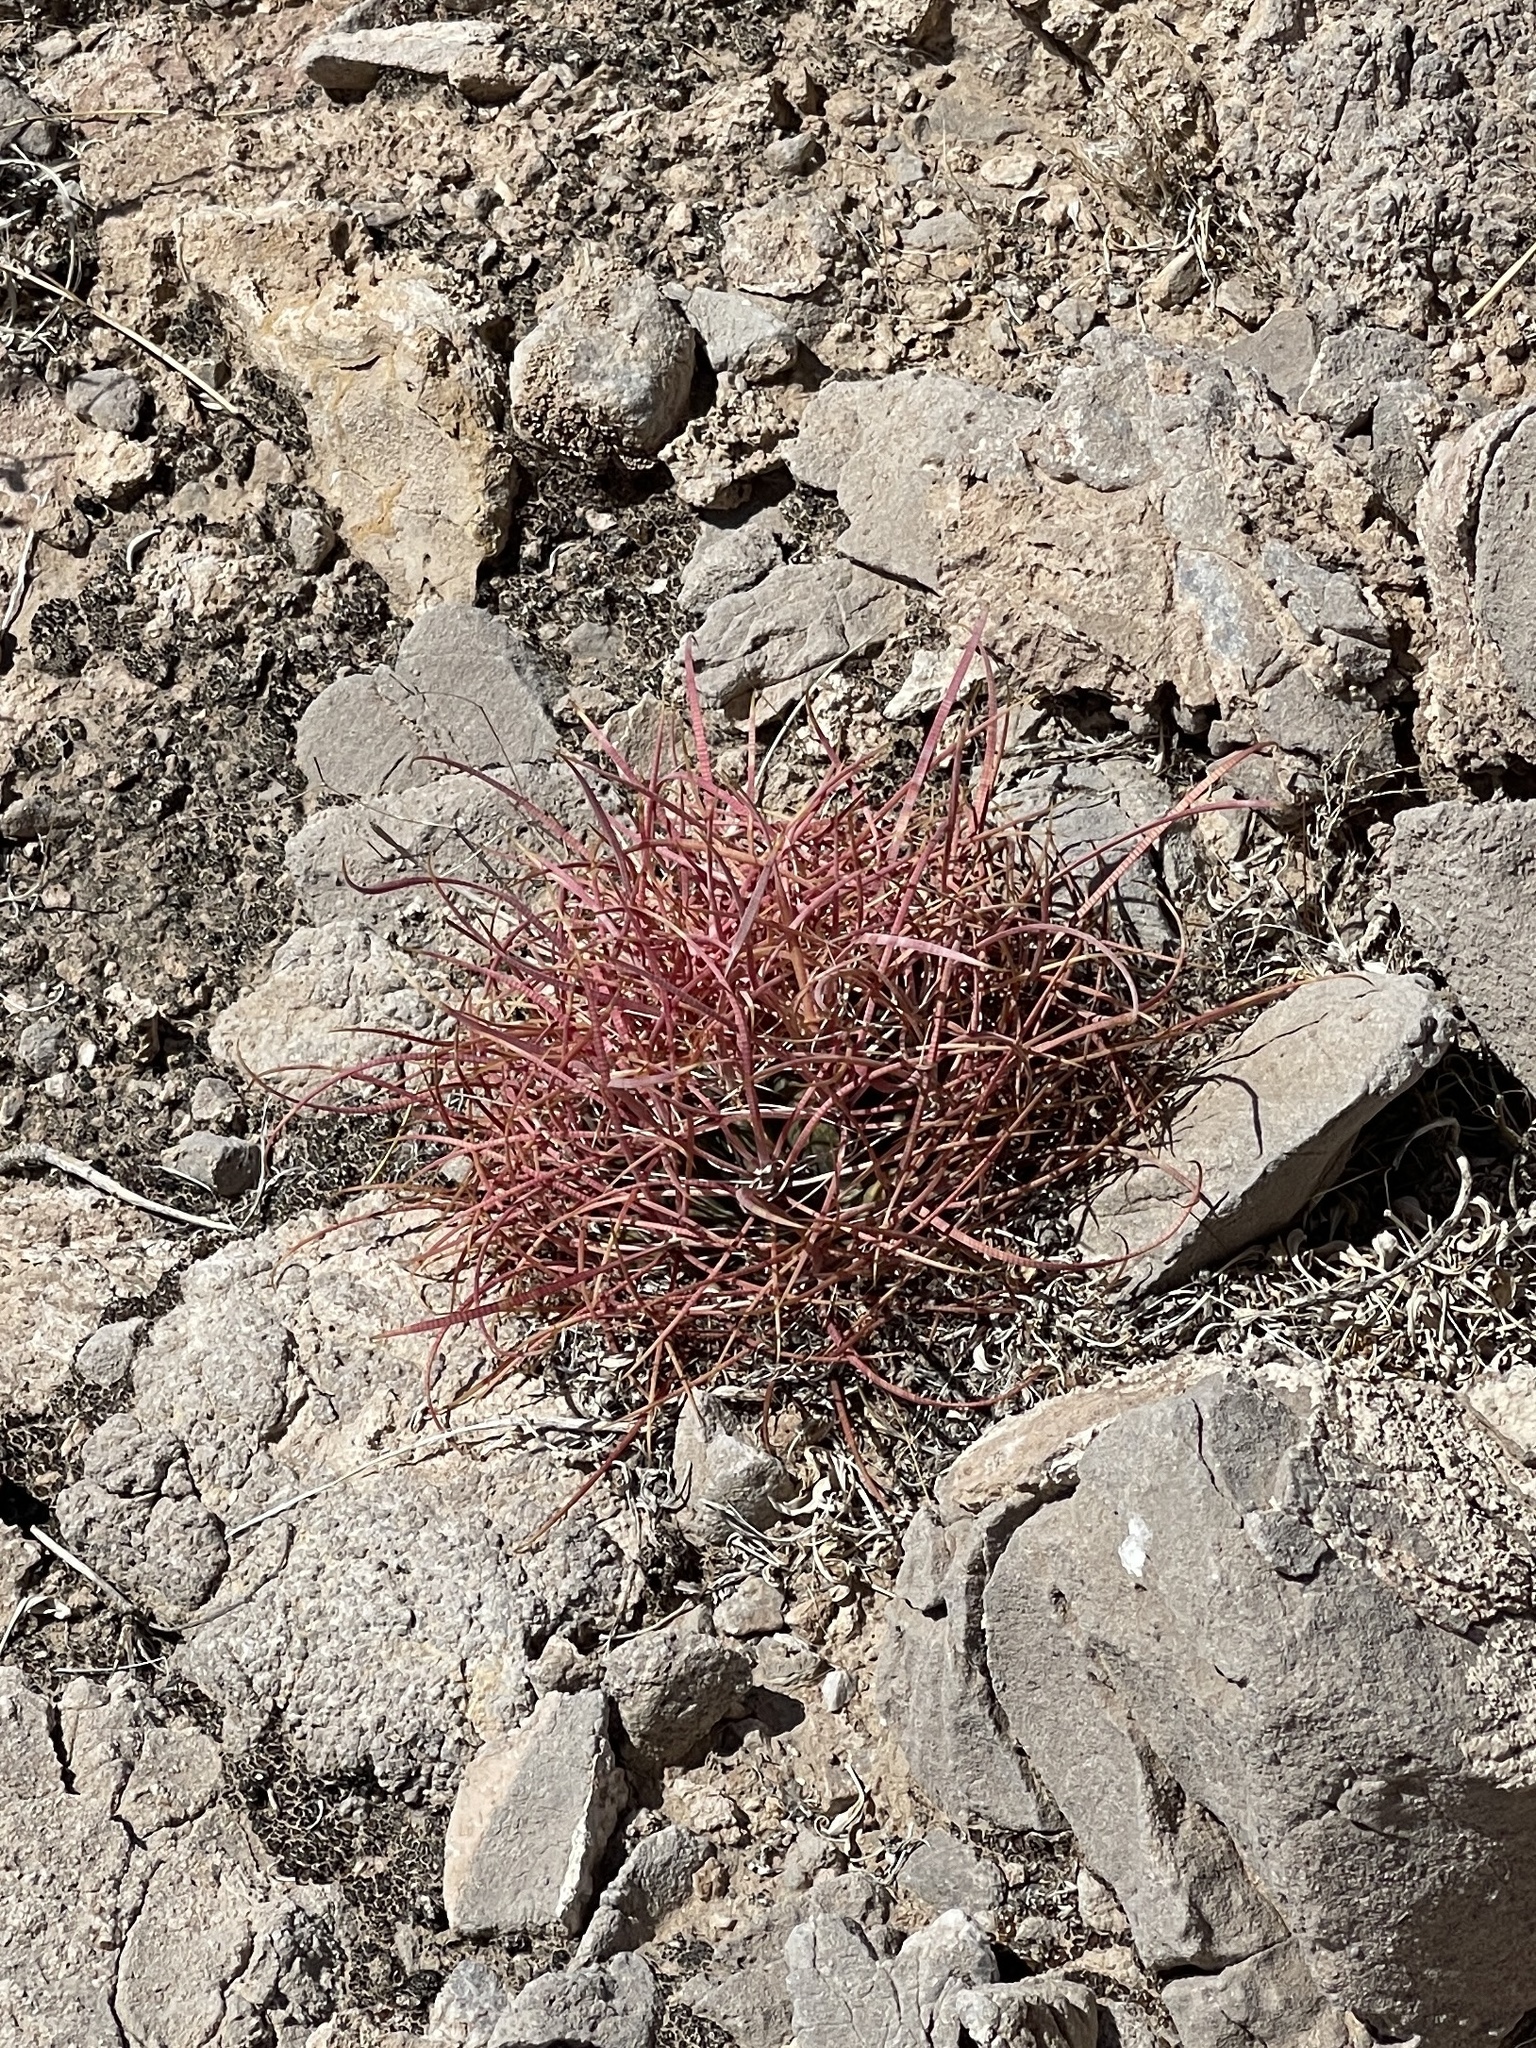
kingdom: Plantae
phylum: Tracheophyta
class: Magnoliopsida
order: Caryophyllales
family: Cactaceae
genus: Ferocactus
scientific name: Ferocactus cylindraceus
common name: California barrel cactus
